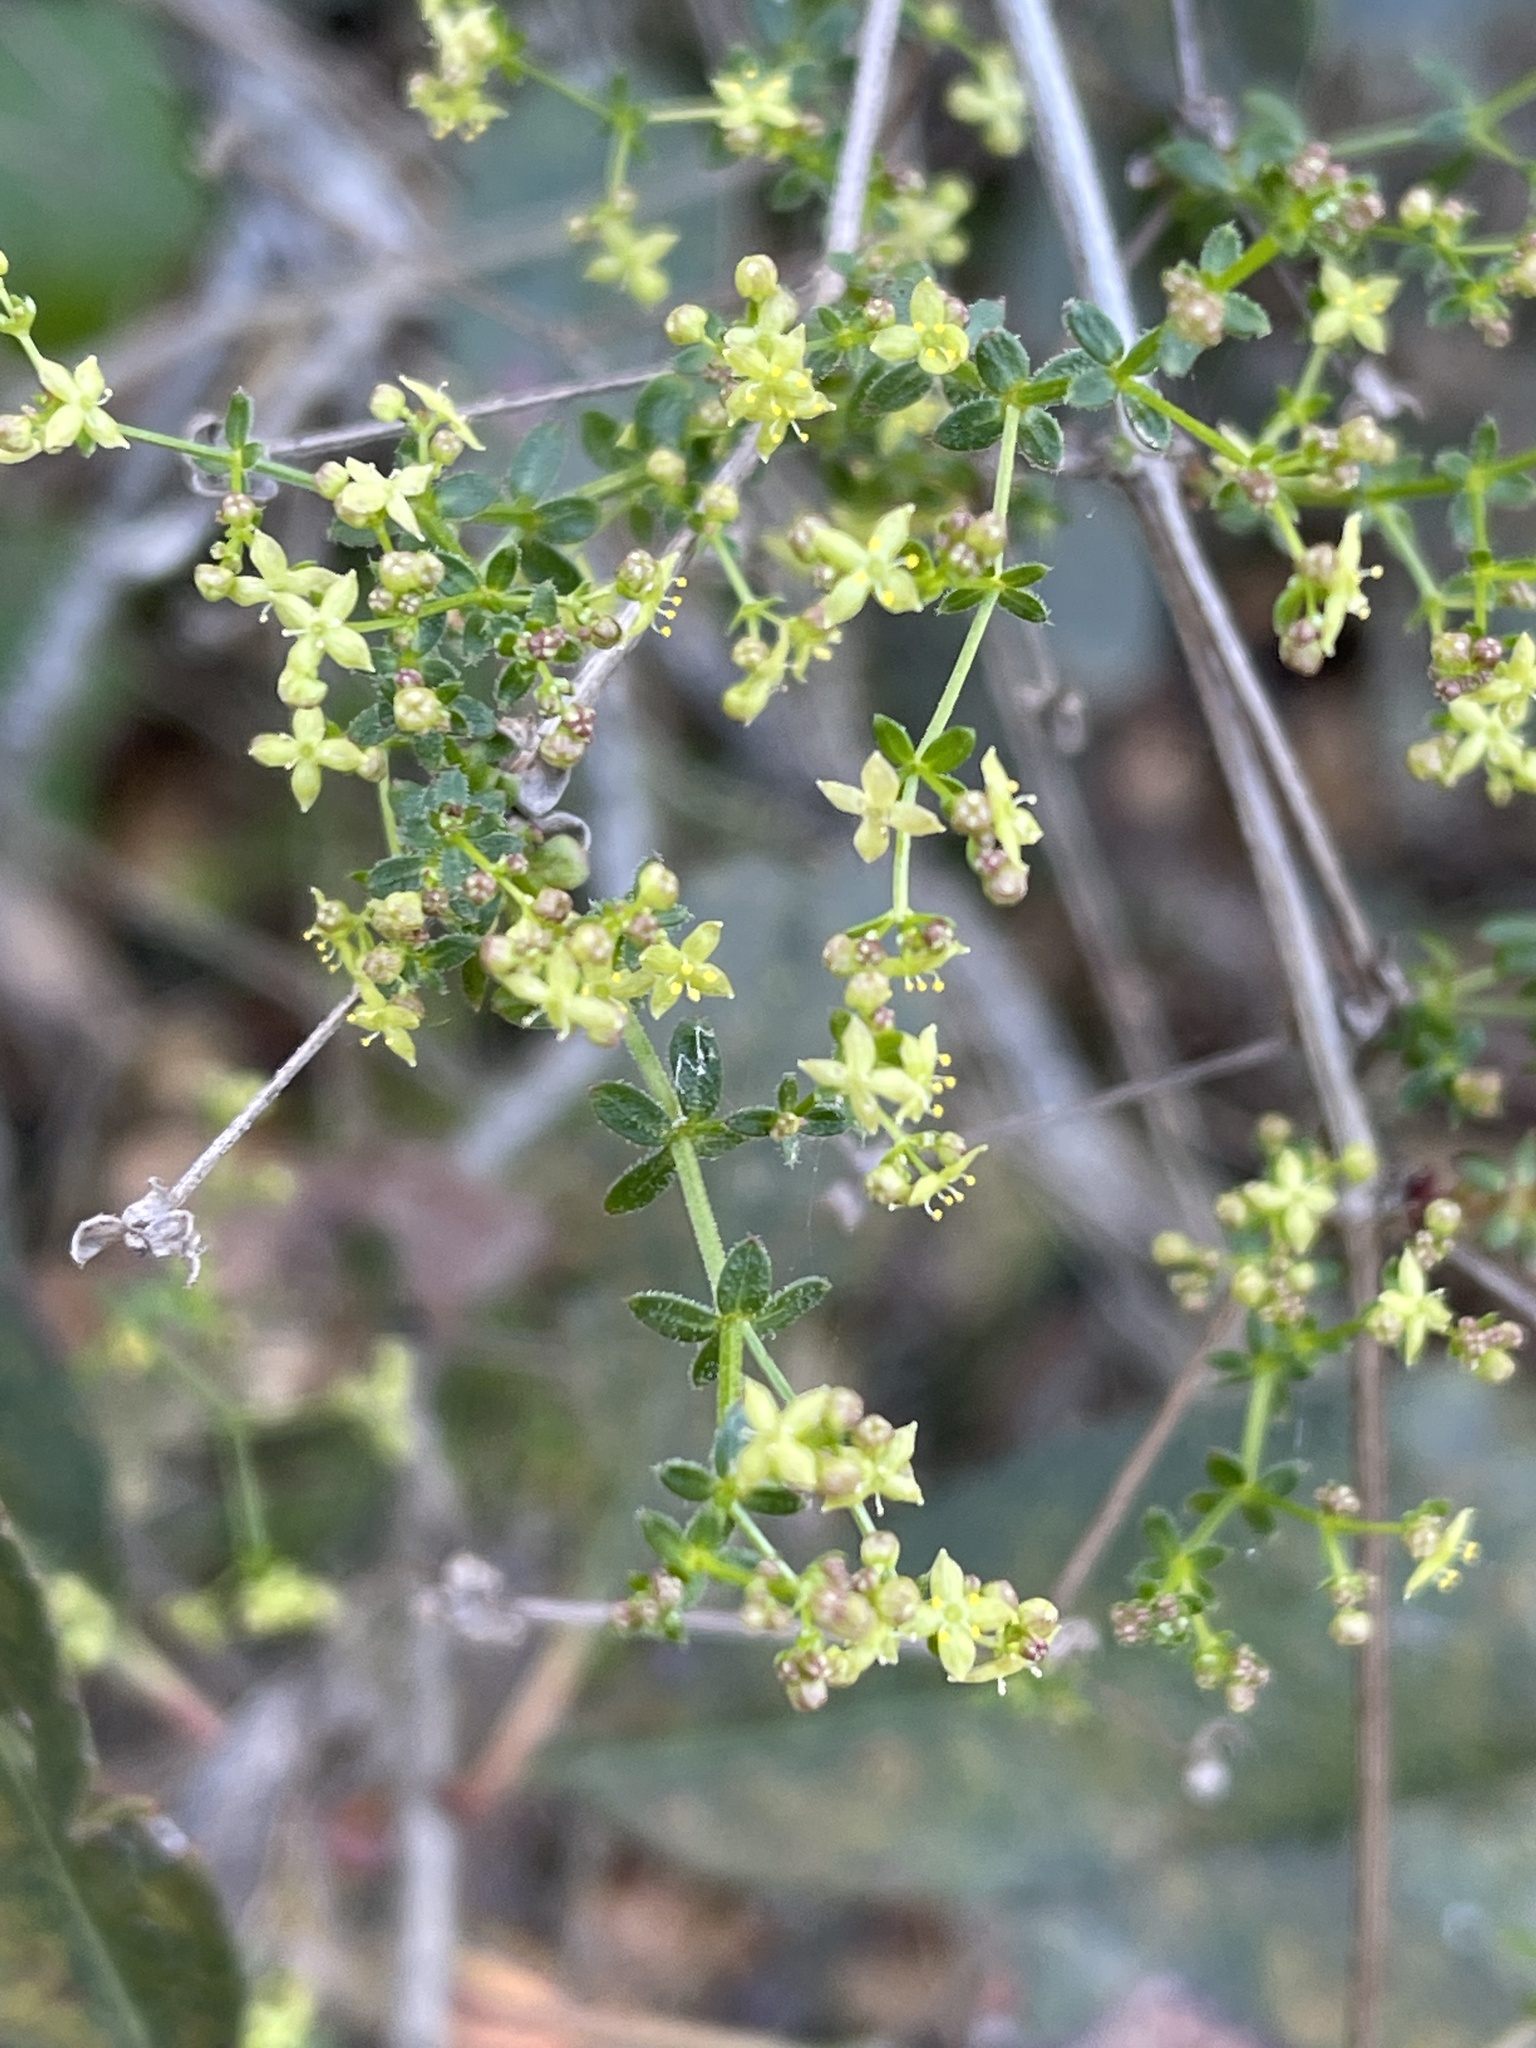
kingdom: Plantae
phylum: Tracheophyta
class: Magnoliopsida
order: Gentianales
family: Rubiaceae
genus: Galium
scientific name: Galium porrigens
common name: Climbing bedstraw
